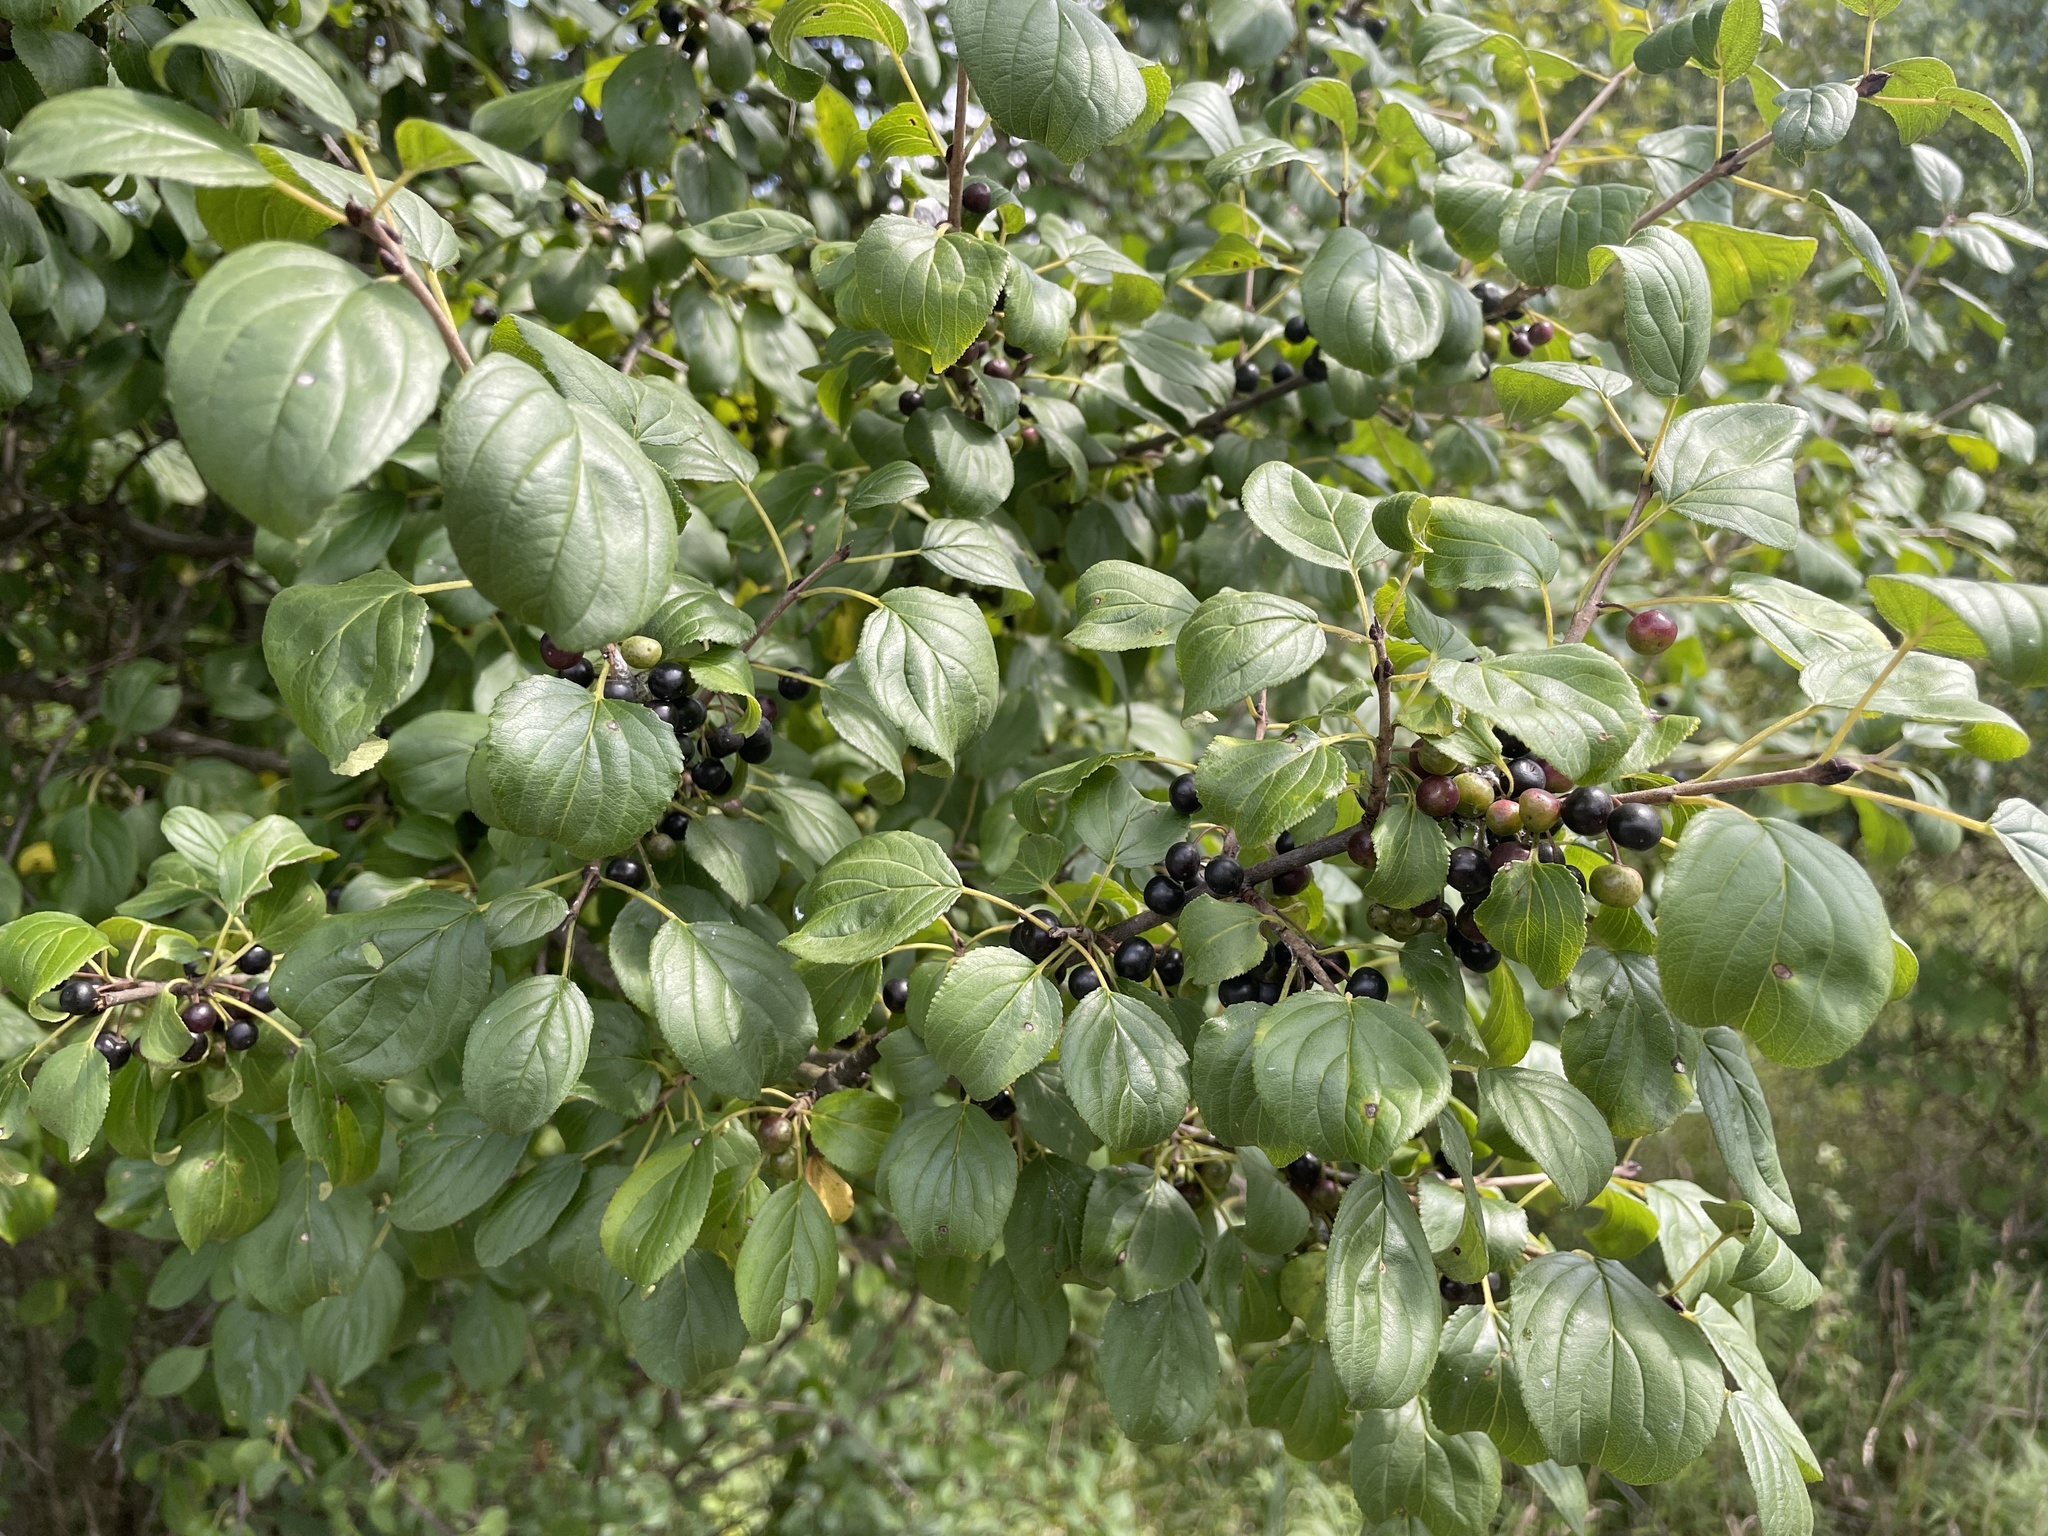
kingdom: Plantae
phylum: Tracheophyta
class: Magnoliopsida
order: Rosales
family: Rhamnaceae
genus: Rhamnus
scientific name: Rhamnus cathartica
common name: Common buckthorn
